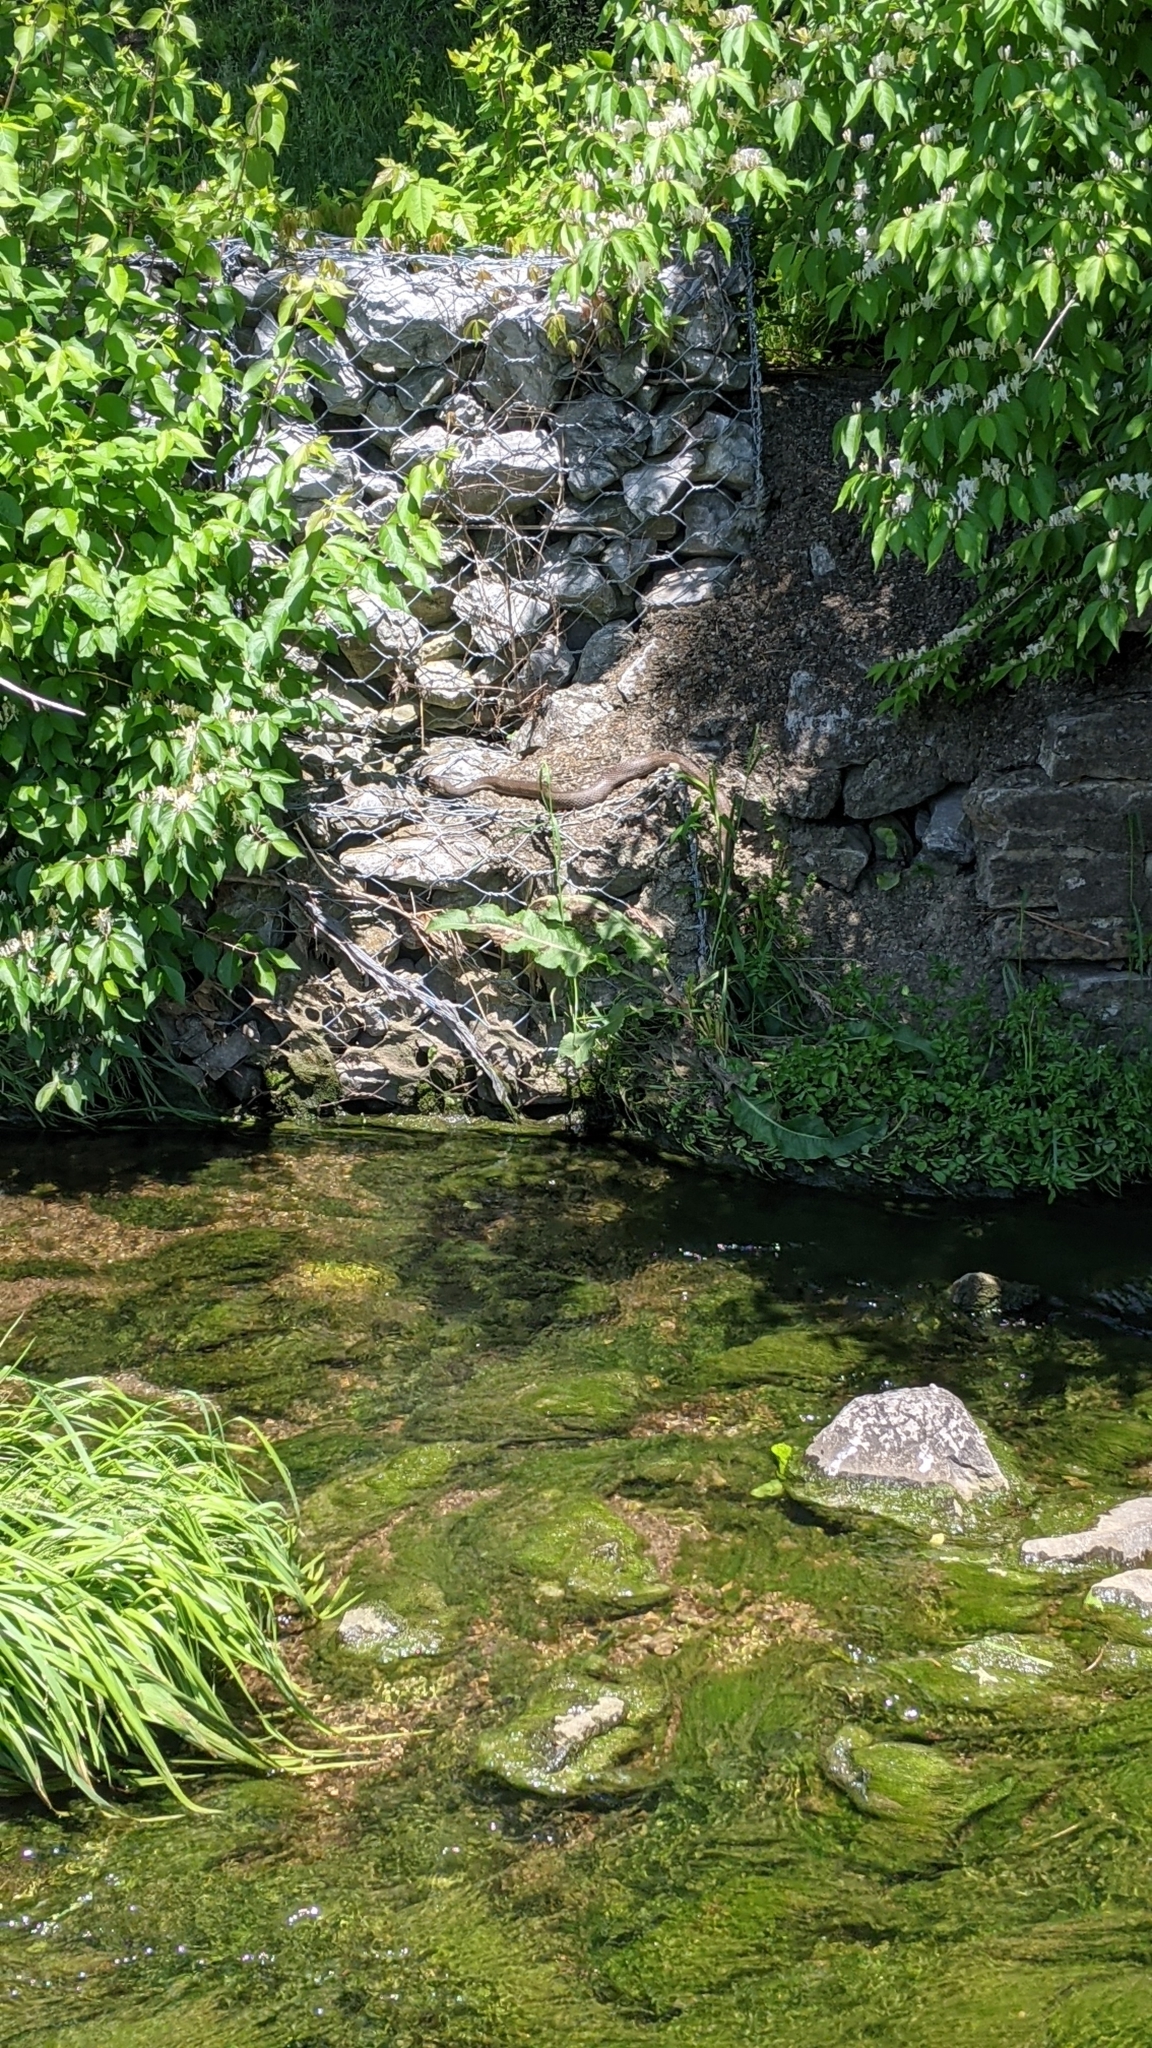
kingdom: Animalia
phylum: Chordata
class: Squamata
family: Colubridae
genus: Nerodia
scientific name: Nerodia sipedon
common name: Northern water snake
